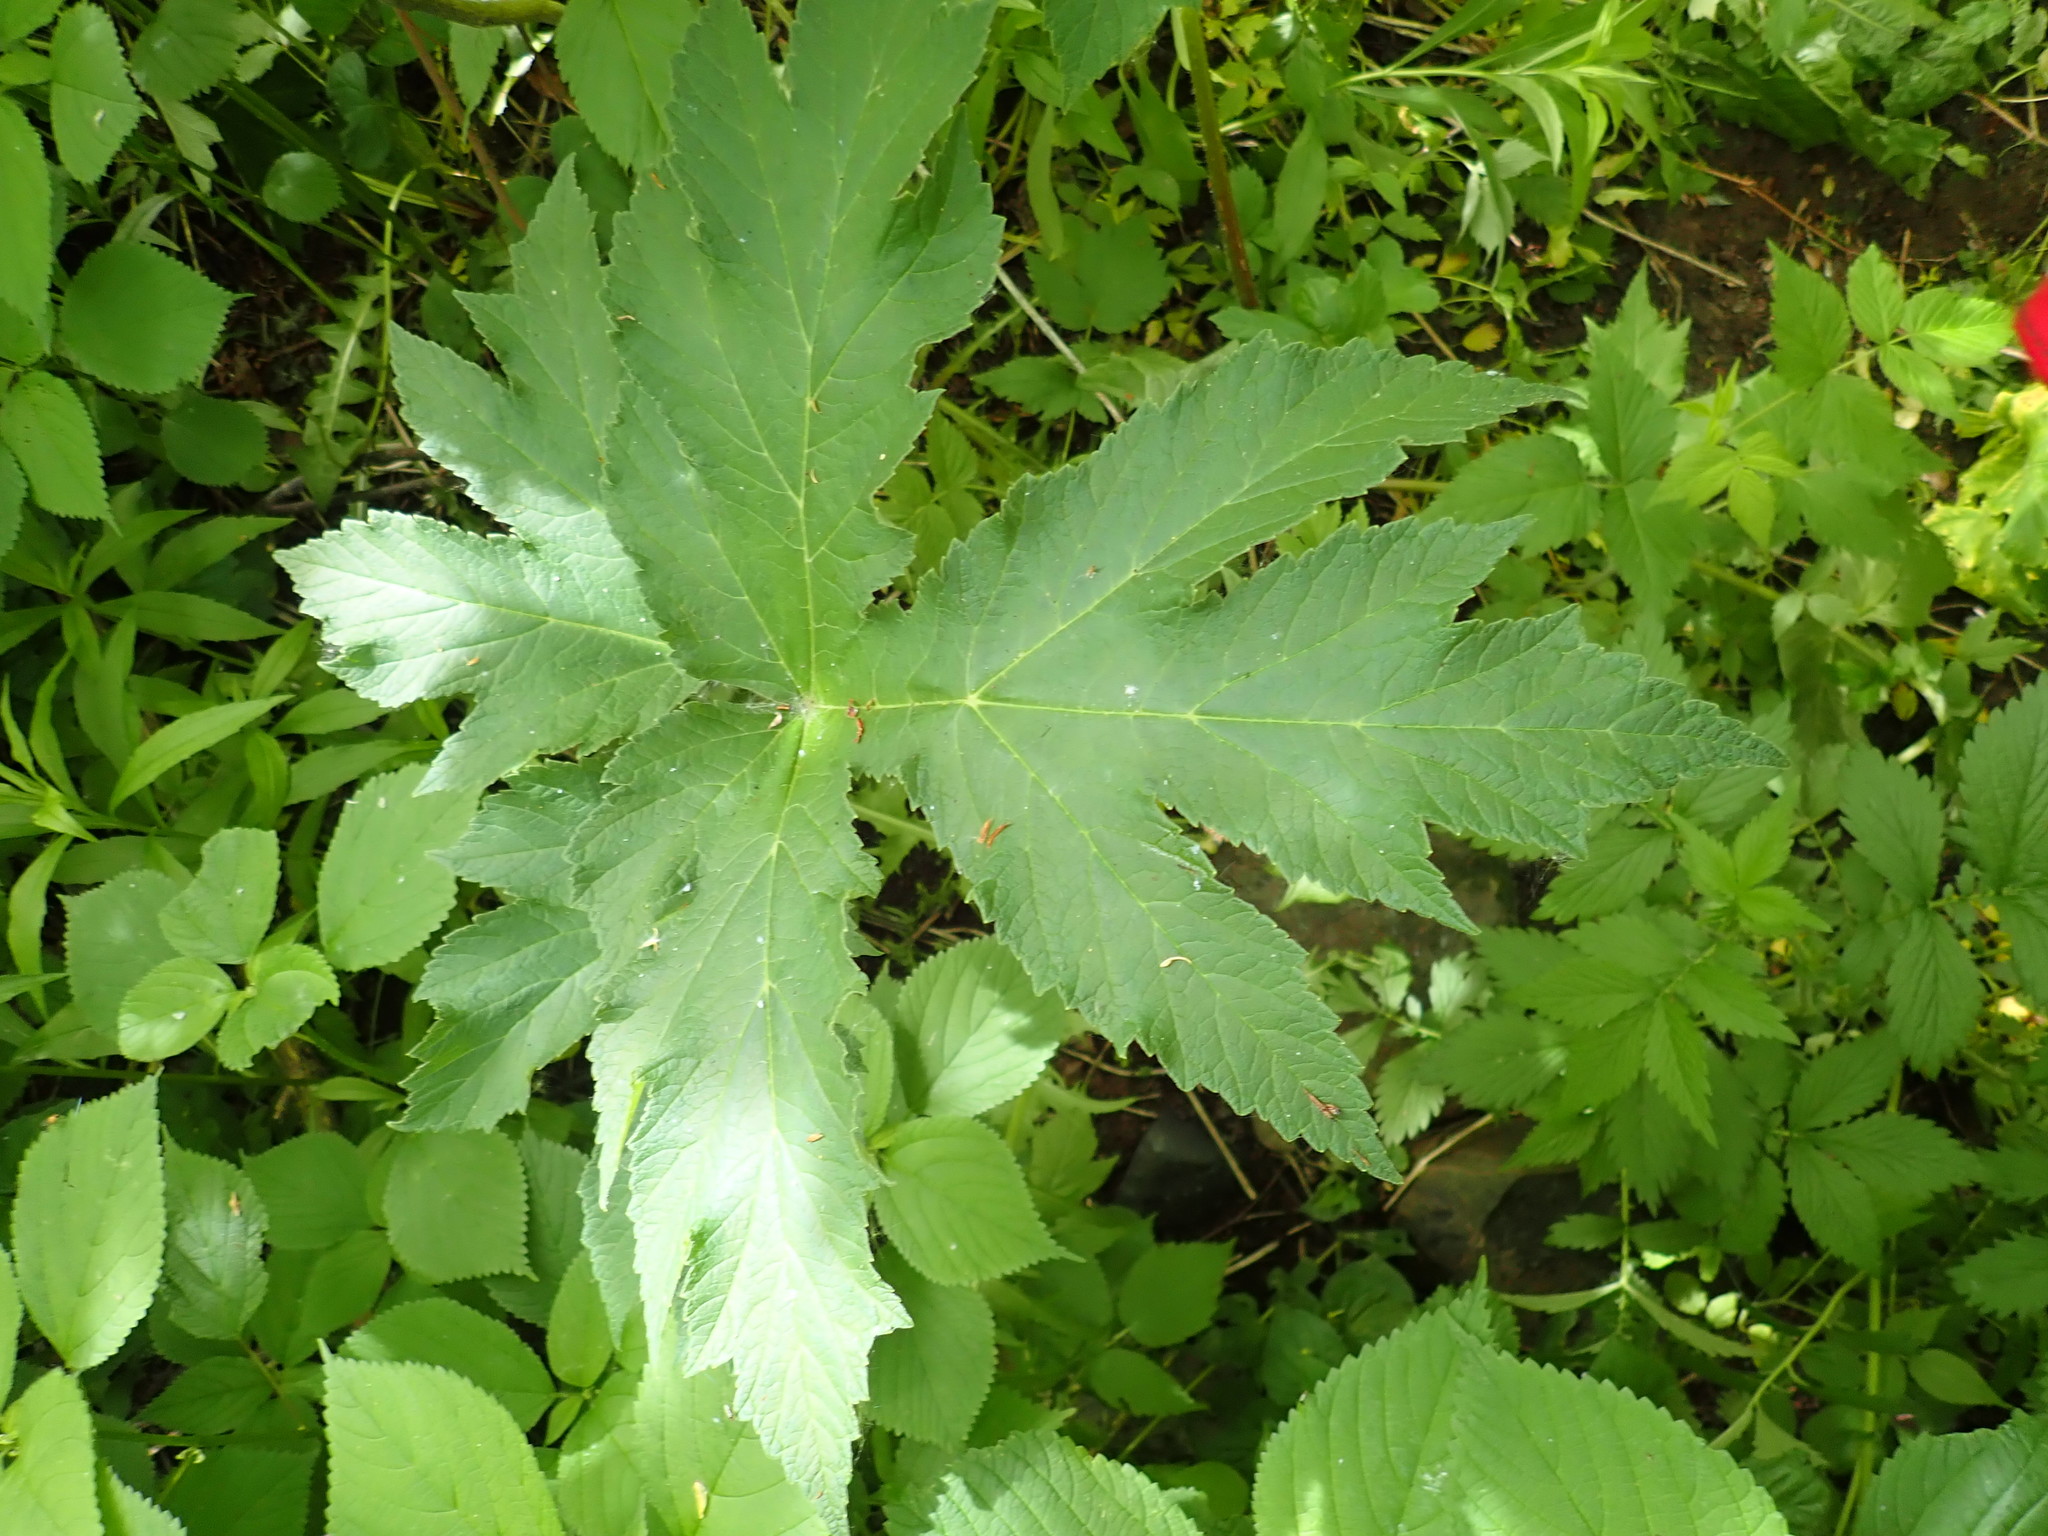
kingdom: Plantae
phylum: Tracheophyta
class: Magnoliopsida
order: Apiales
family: Apiaceae
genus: Heracleum
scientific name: Heracleum maximum
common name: American cow parsnip
